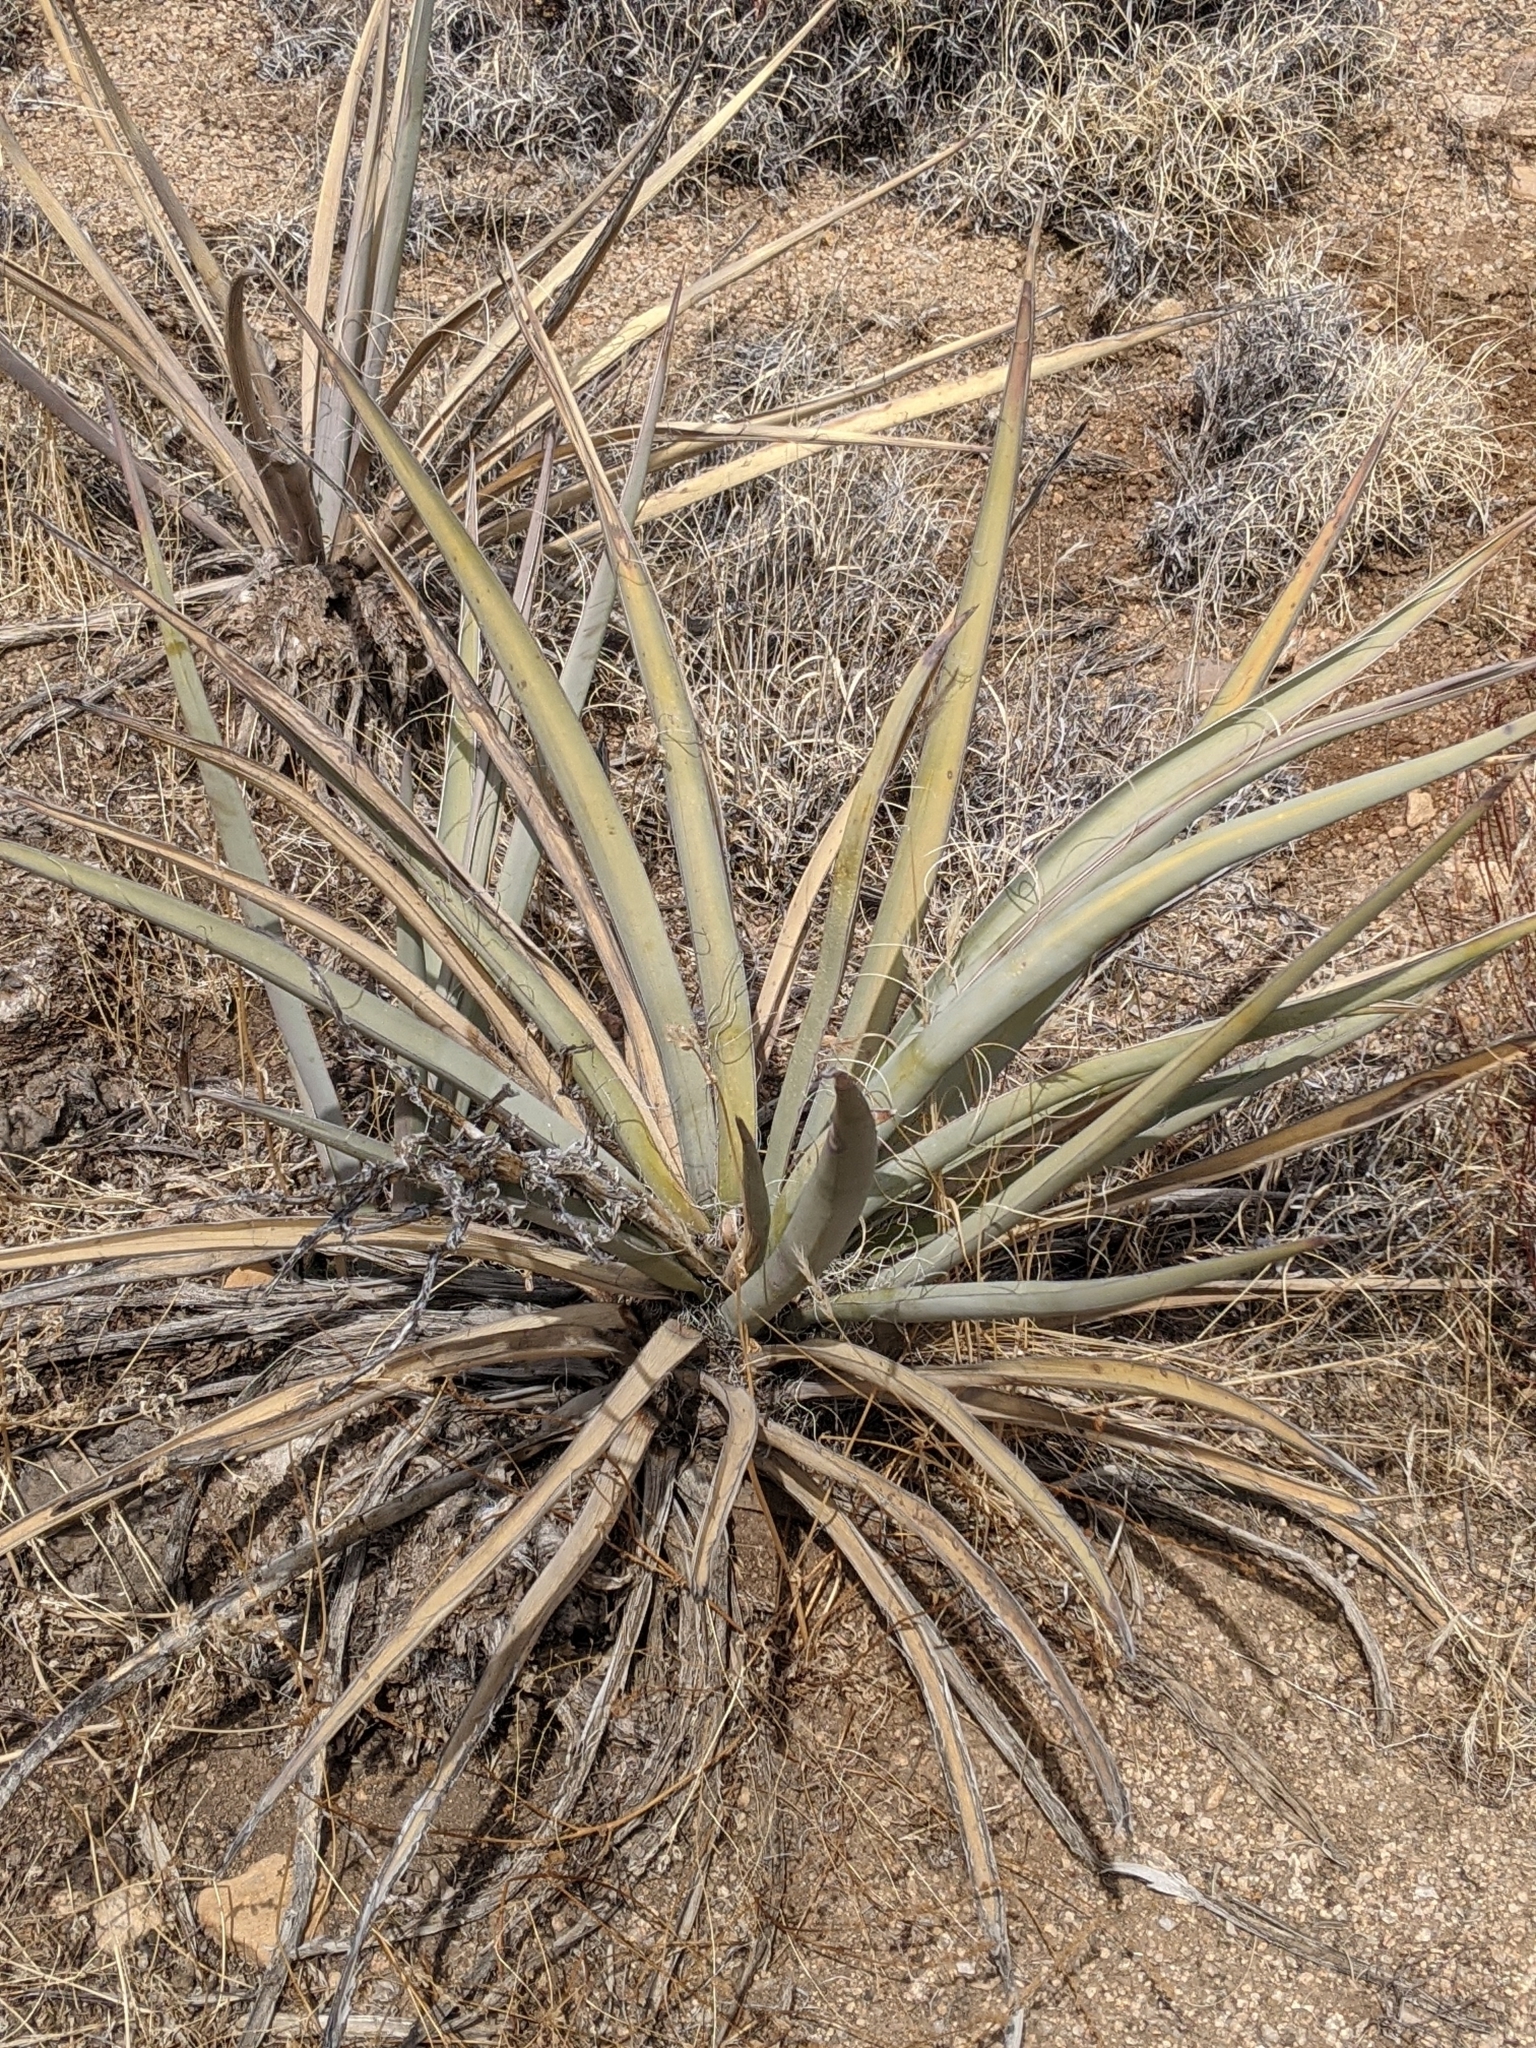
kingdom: Plantae
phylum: Tracheophyta
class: Liliopsida
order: Asparagales
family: Asparagaceae
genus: Yucca
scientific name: Yucca baccata
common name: Banana yucca
